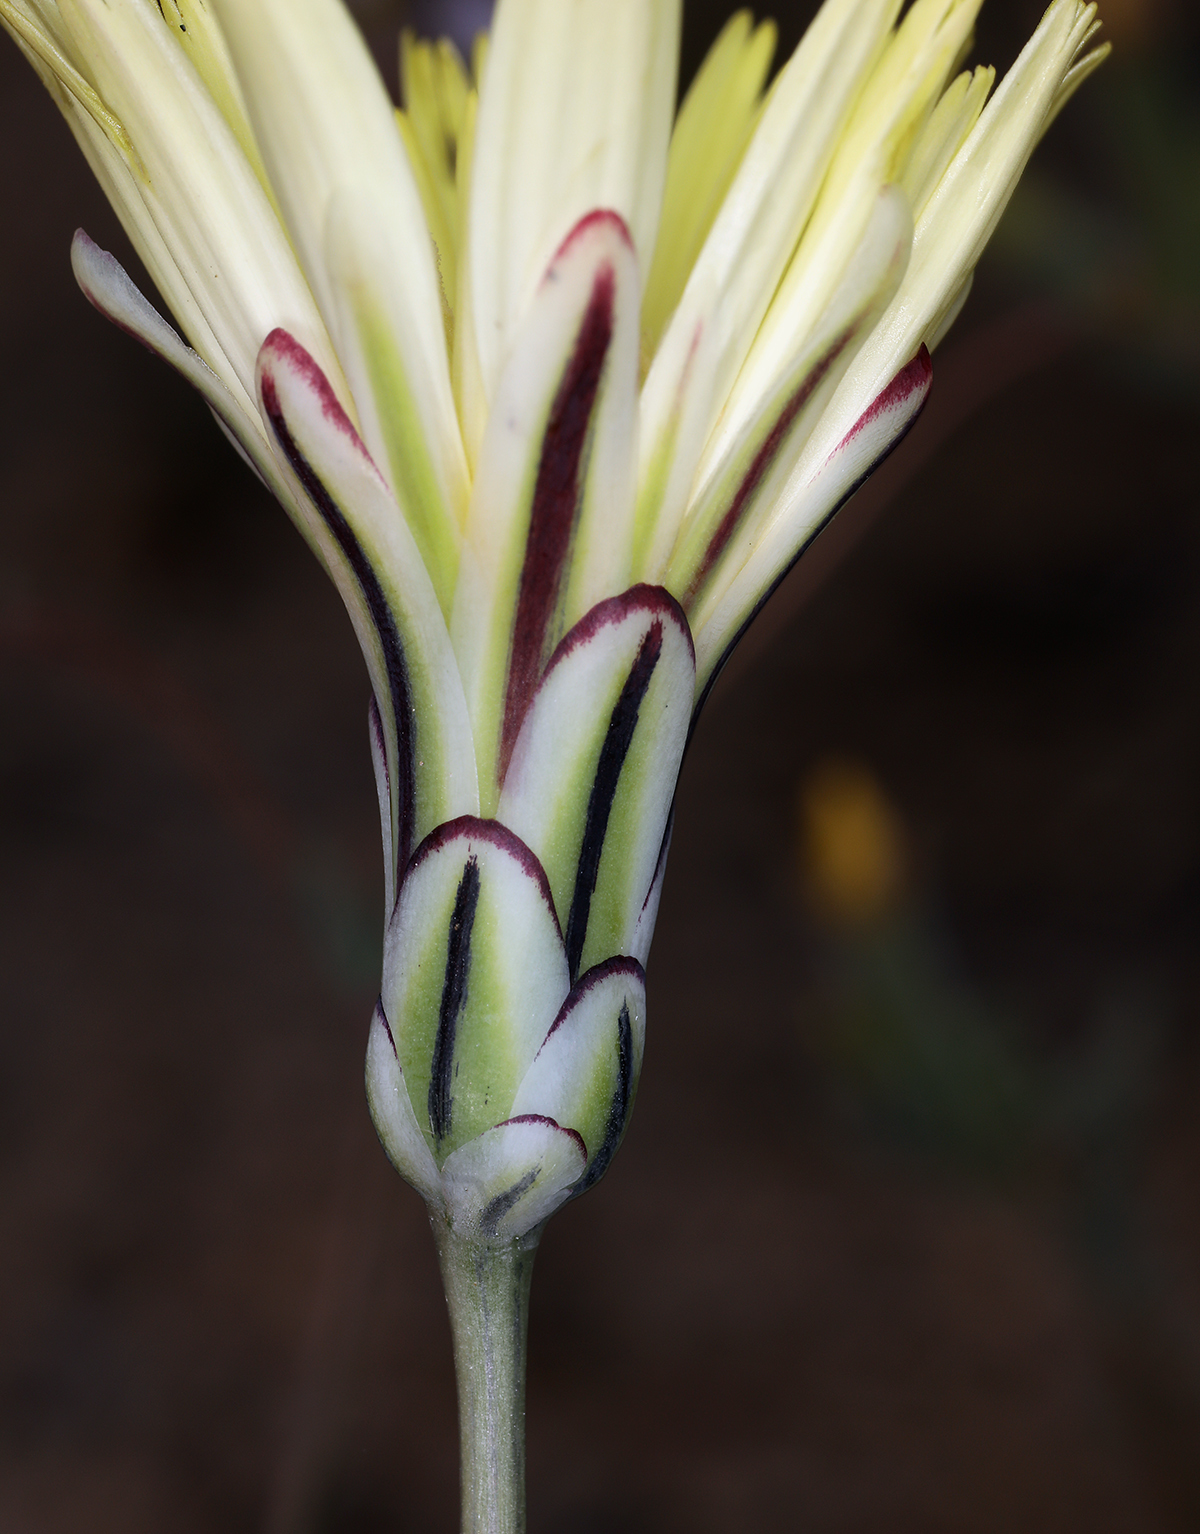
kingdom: Plantae
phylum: Tracheophyta
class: Magnoliopsida
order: Asterales
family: Asteraceae
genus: Anisocoma
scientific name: Anisocoma acaulis
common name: Scalebud
